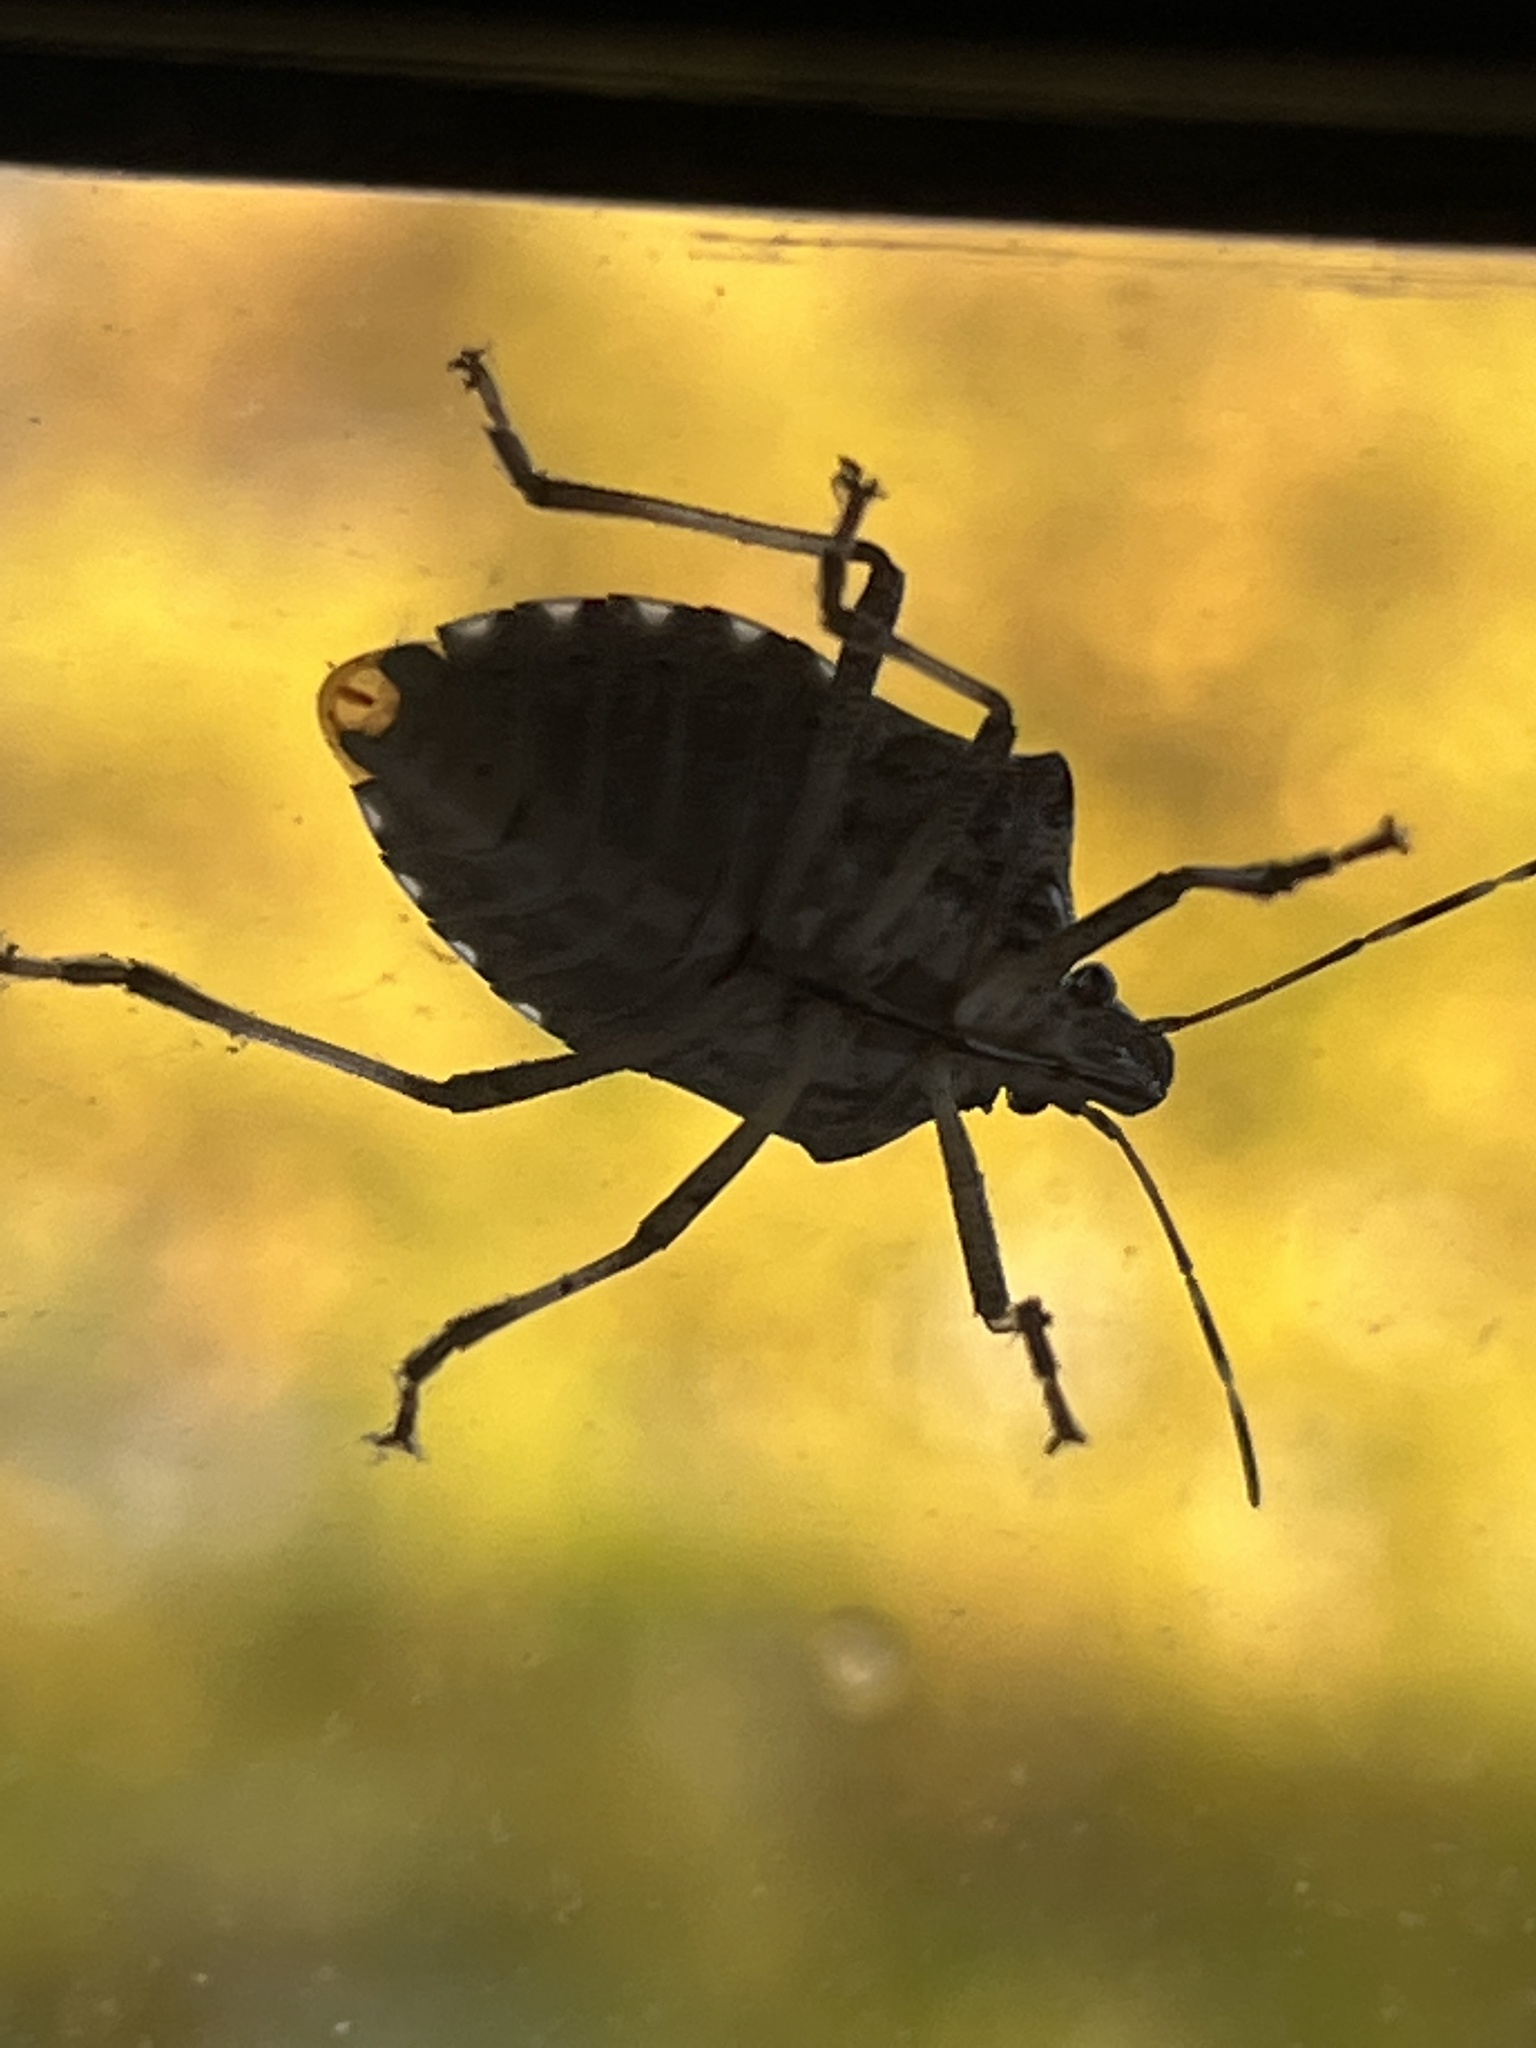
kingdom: Animalia
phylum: Arthropoda
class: Insecta
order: Hemiptera
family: Pentatomidae
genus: Halyomorpha
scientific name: Halyomorpha halys
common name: Brown marmorated stink bug
